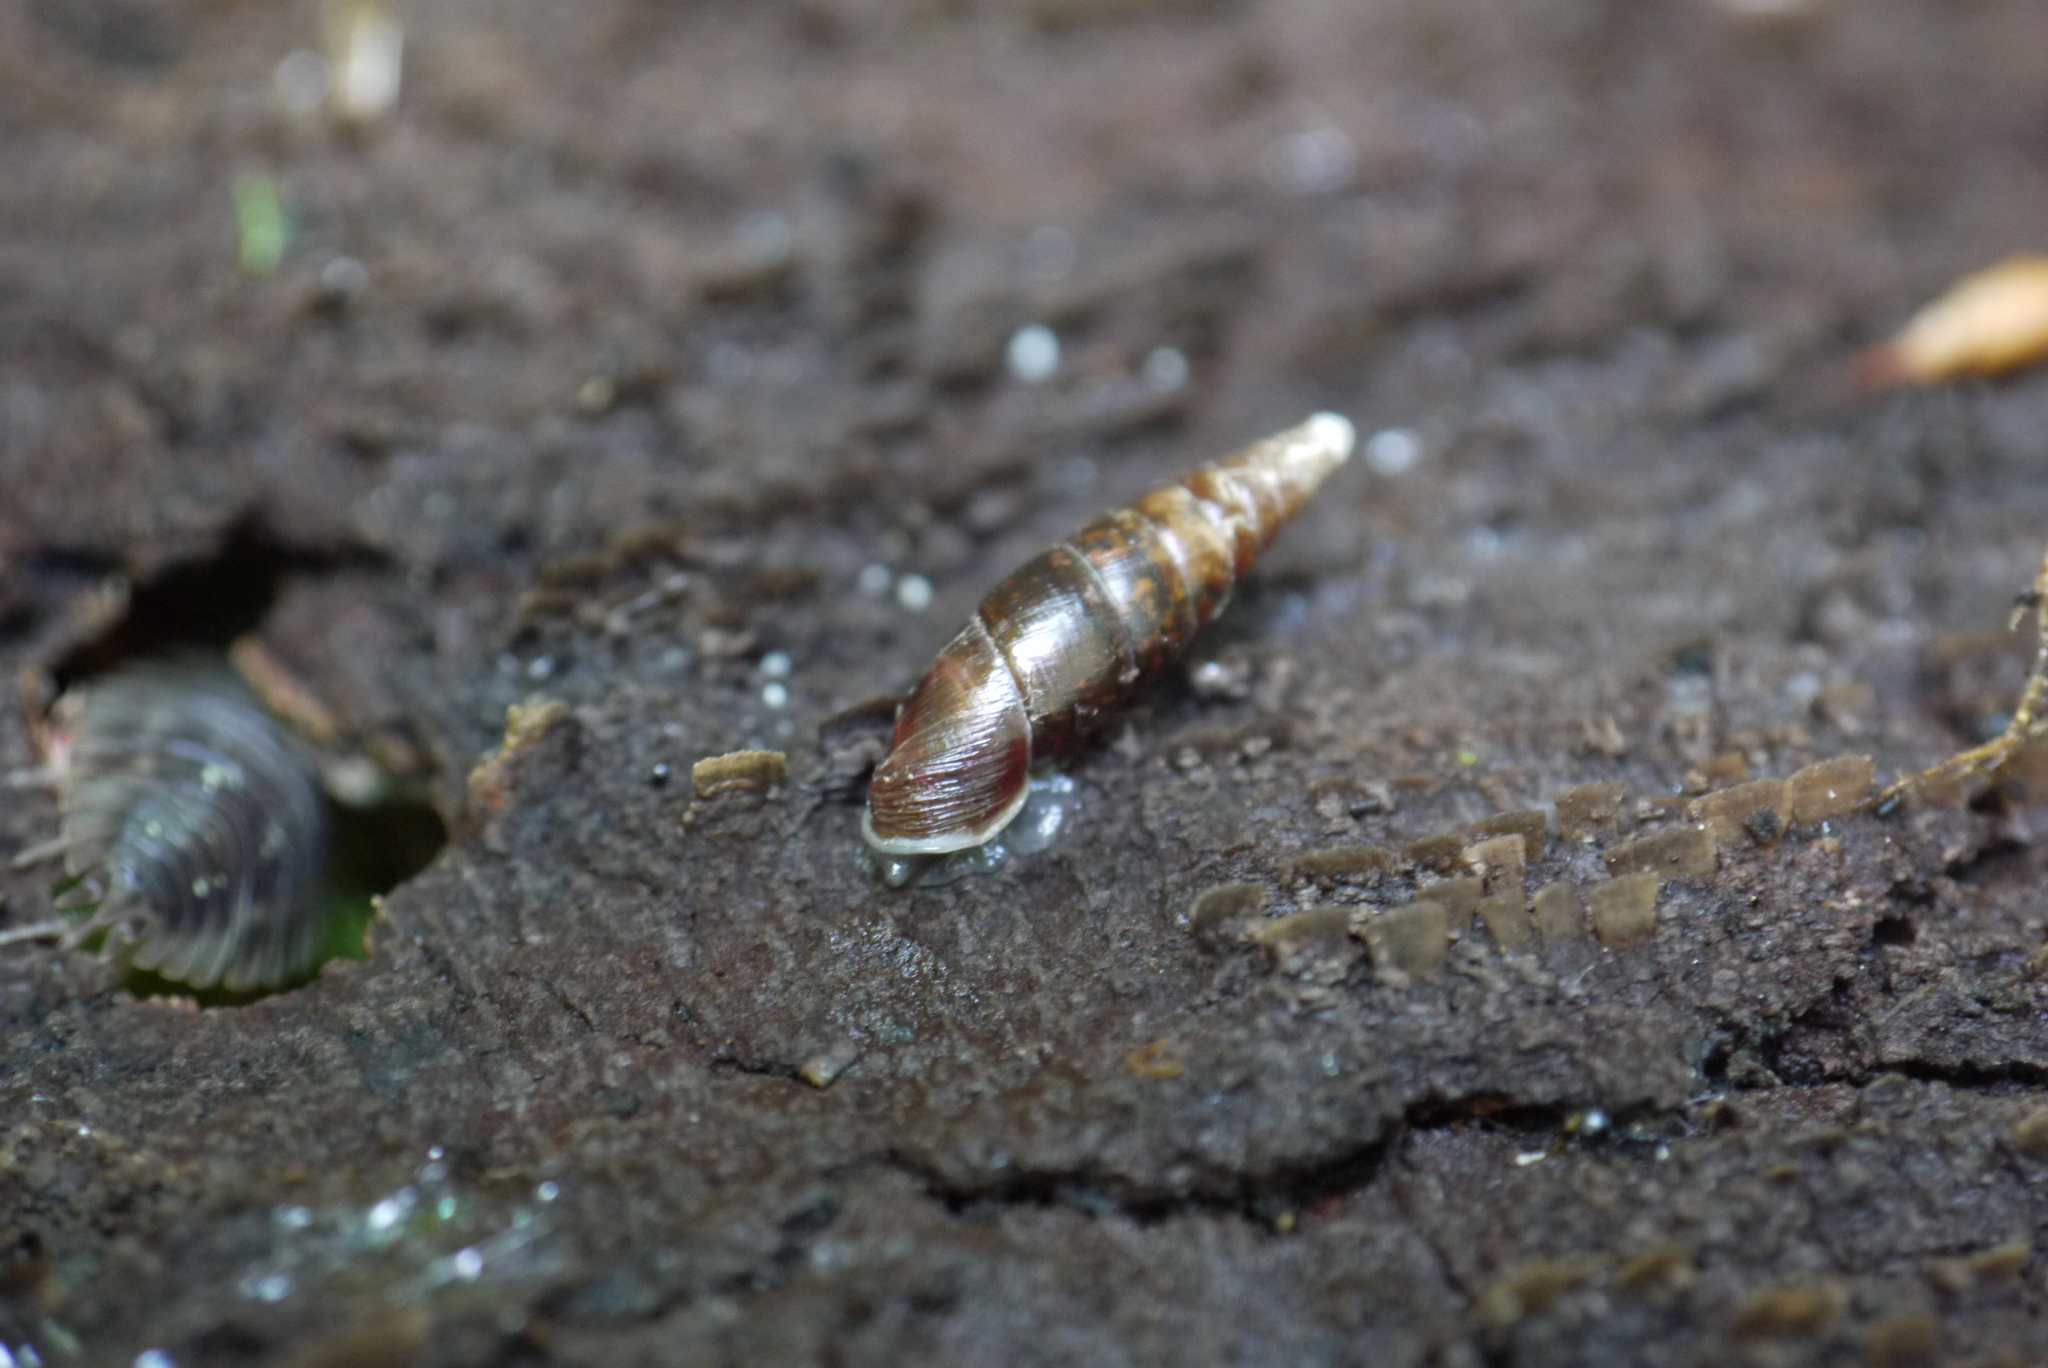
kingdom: Animalia
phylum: Mollusca
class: Gastropoda
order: Stylommatophora
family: Clausiliidae
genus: Cochlodina
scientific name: Cochlodina laminata
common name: Plaited door snail
